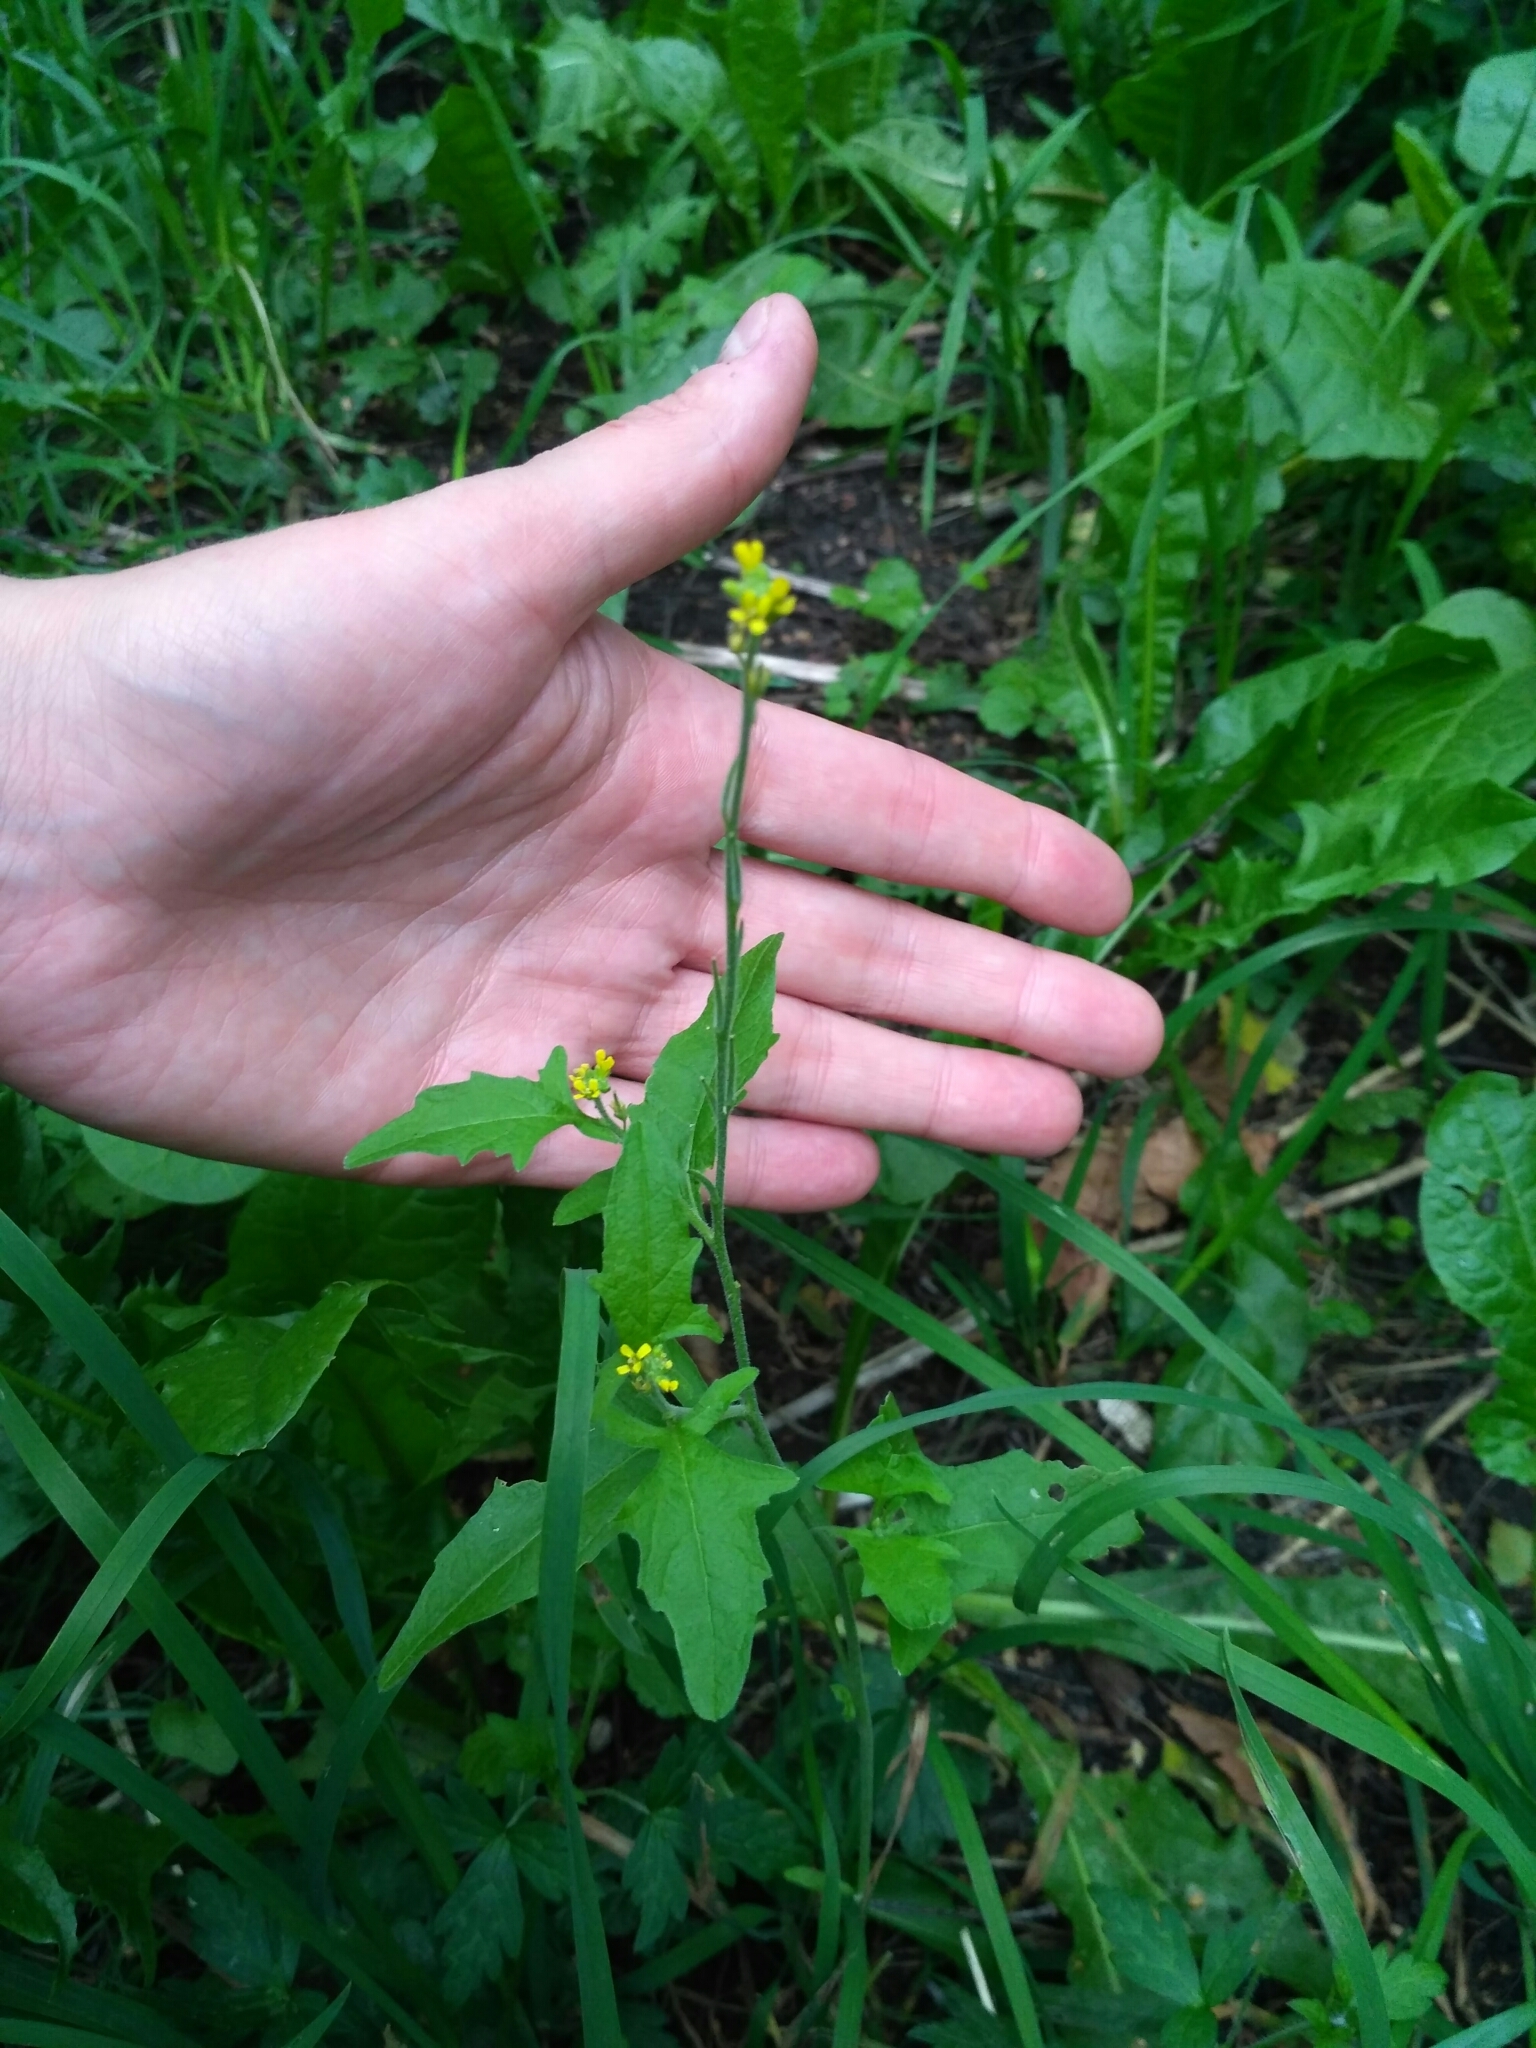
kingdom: Plantae
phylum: Tracheophyta
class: Magnoliopsida
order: Brassicales
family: Brassicaceae
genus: Sisymbrium
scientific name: Sisymbrium officinale
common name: Hedge mustard
